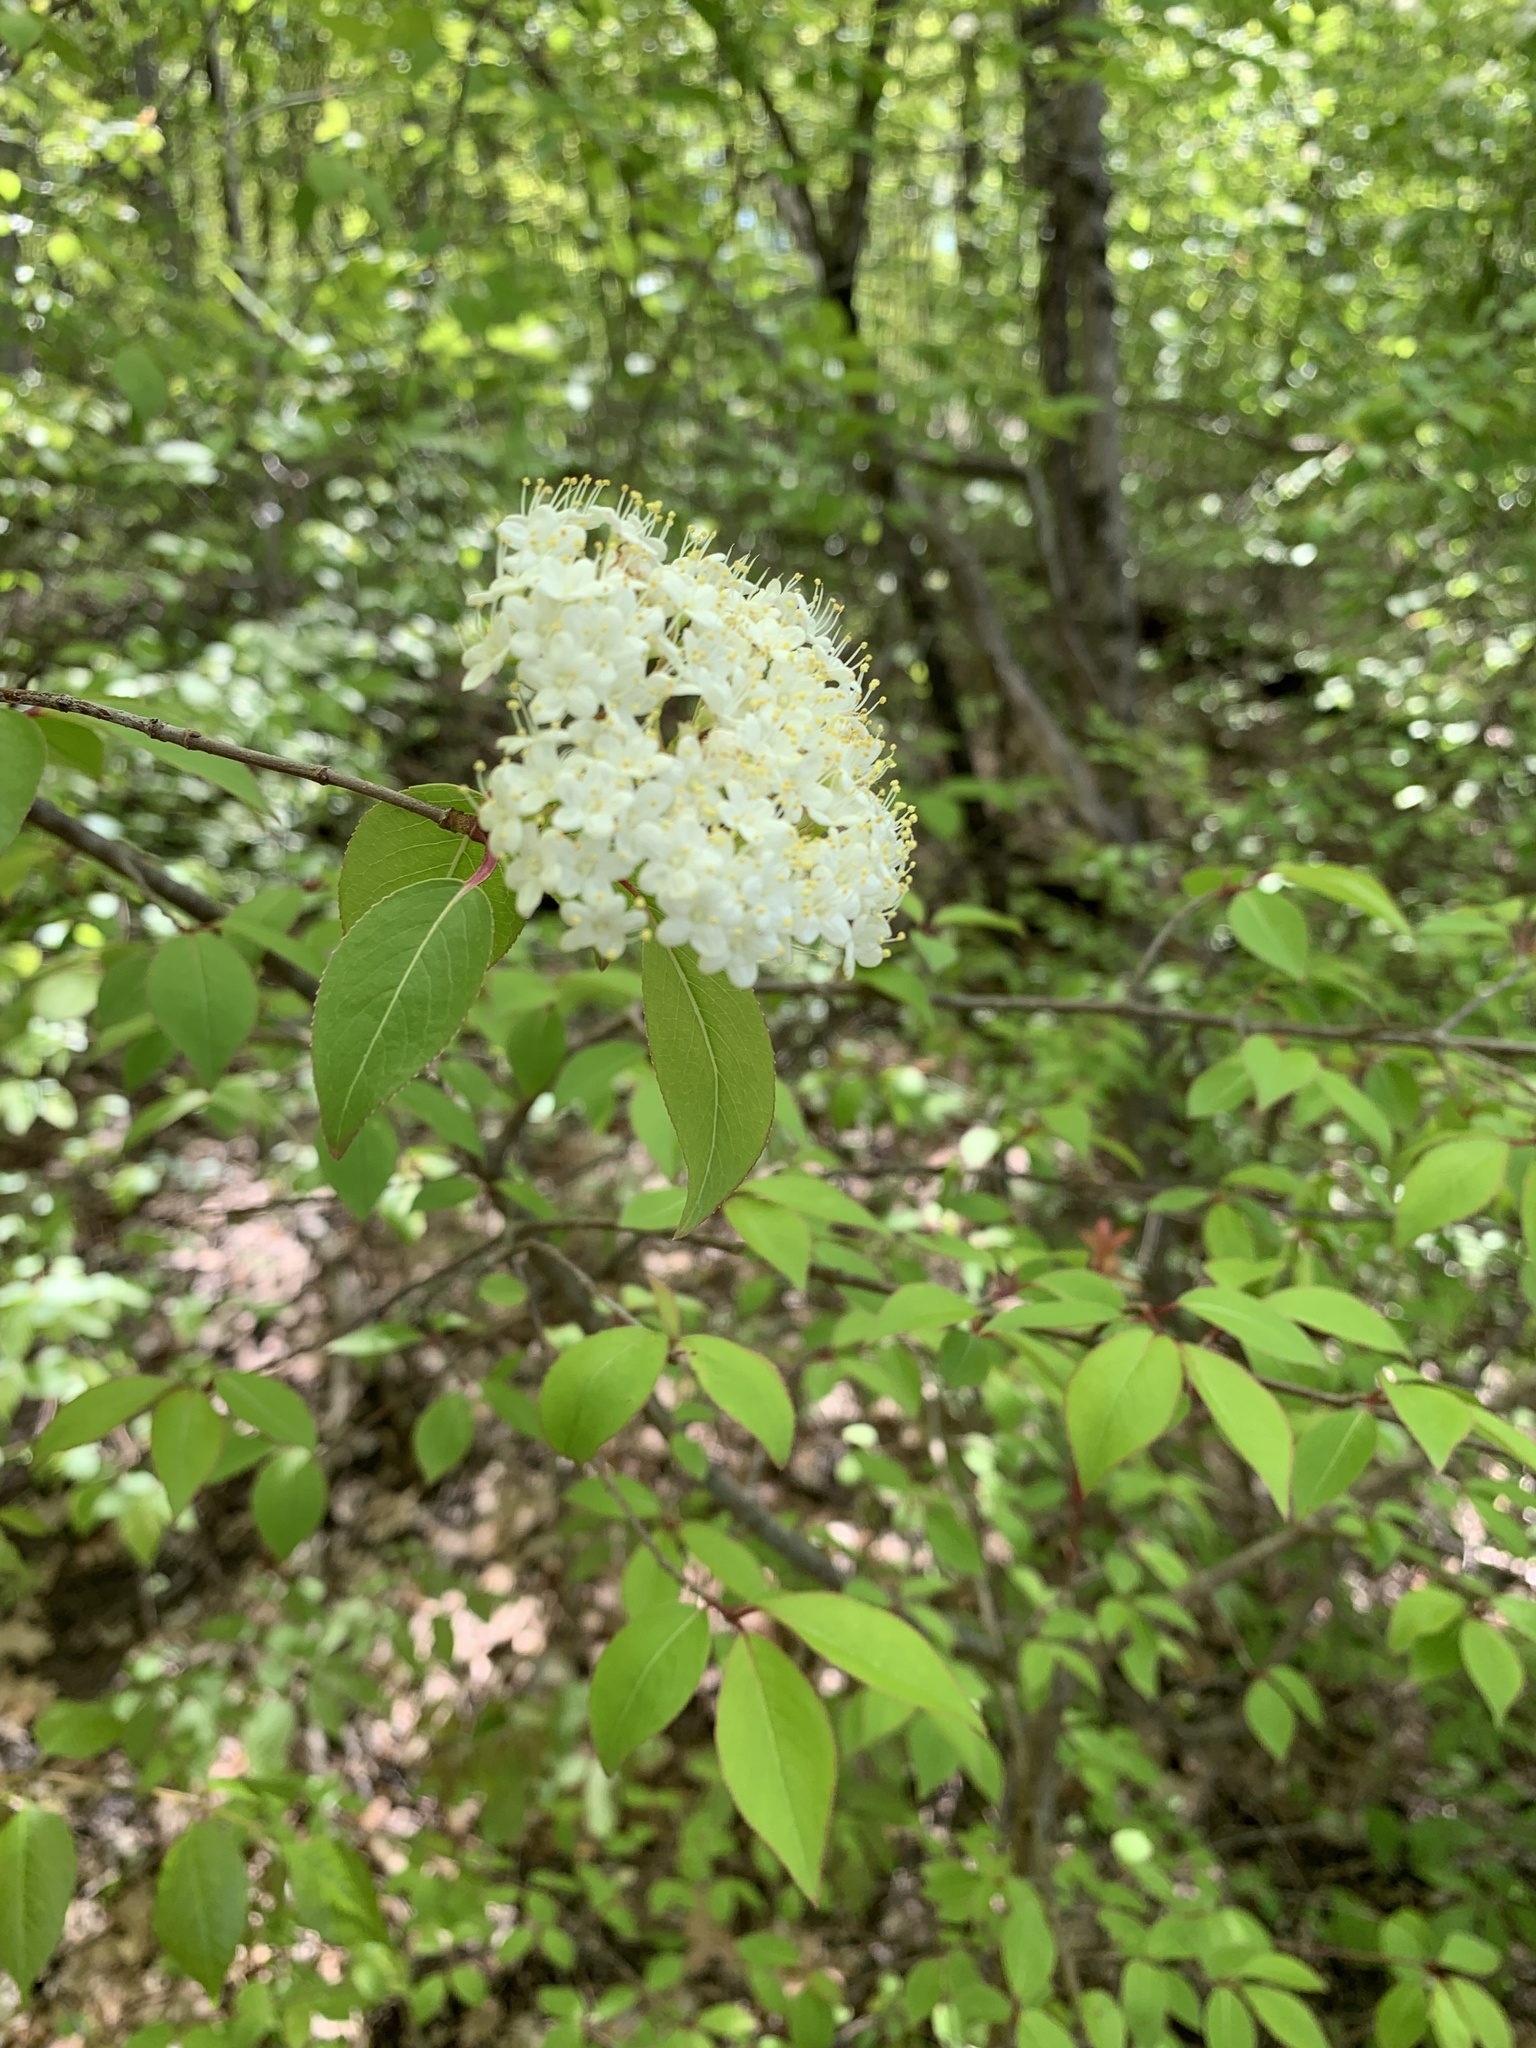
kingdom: Plantae
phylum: Tracheophyta
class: Magnoliopsida
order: Dipsacales
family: Viburnaceae
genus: Viburnum
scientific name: Viburnum prunifolium
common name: Black haw
